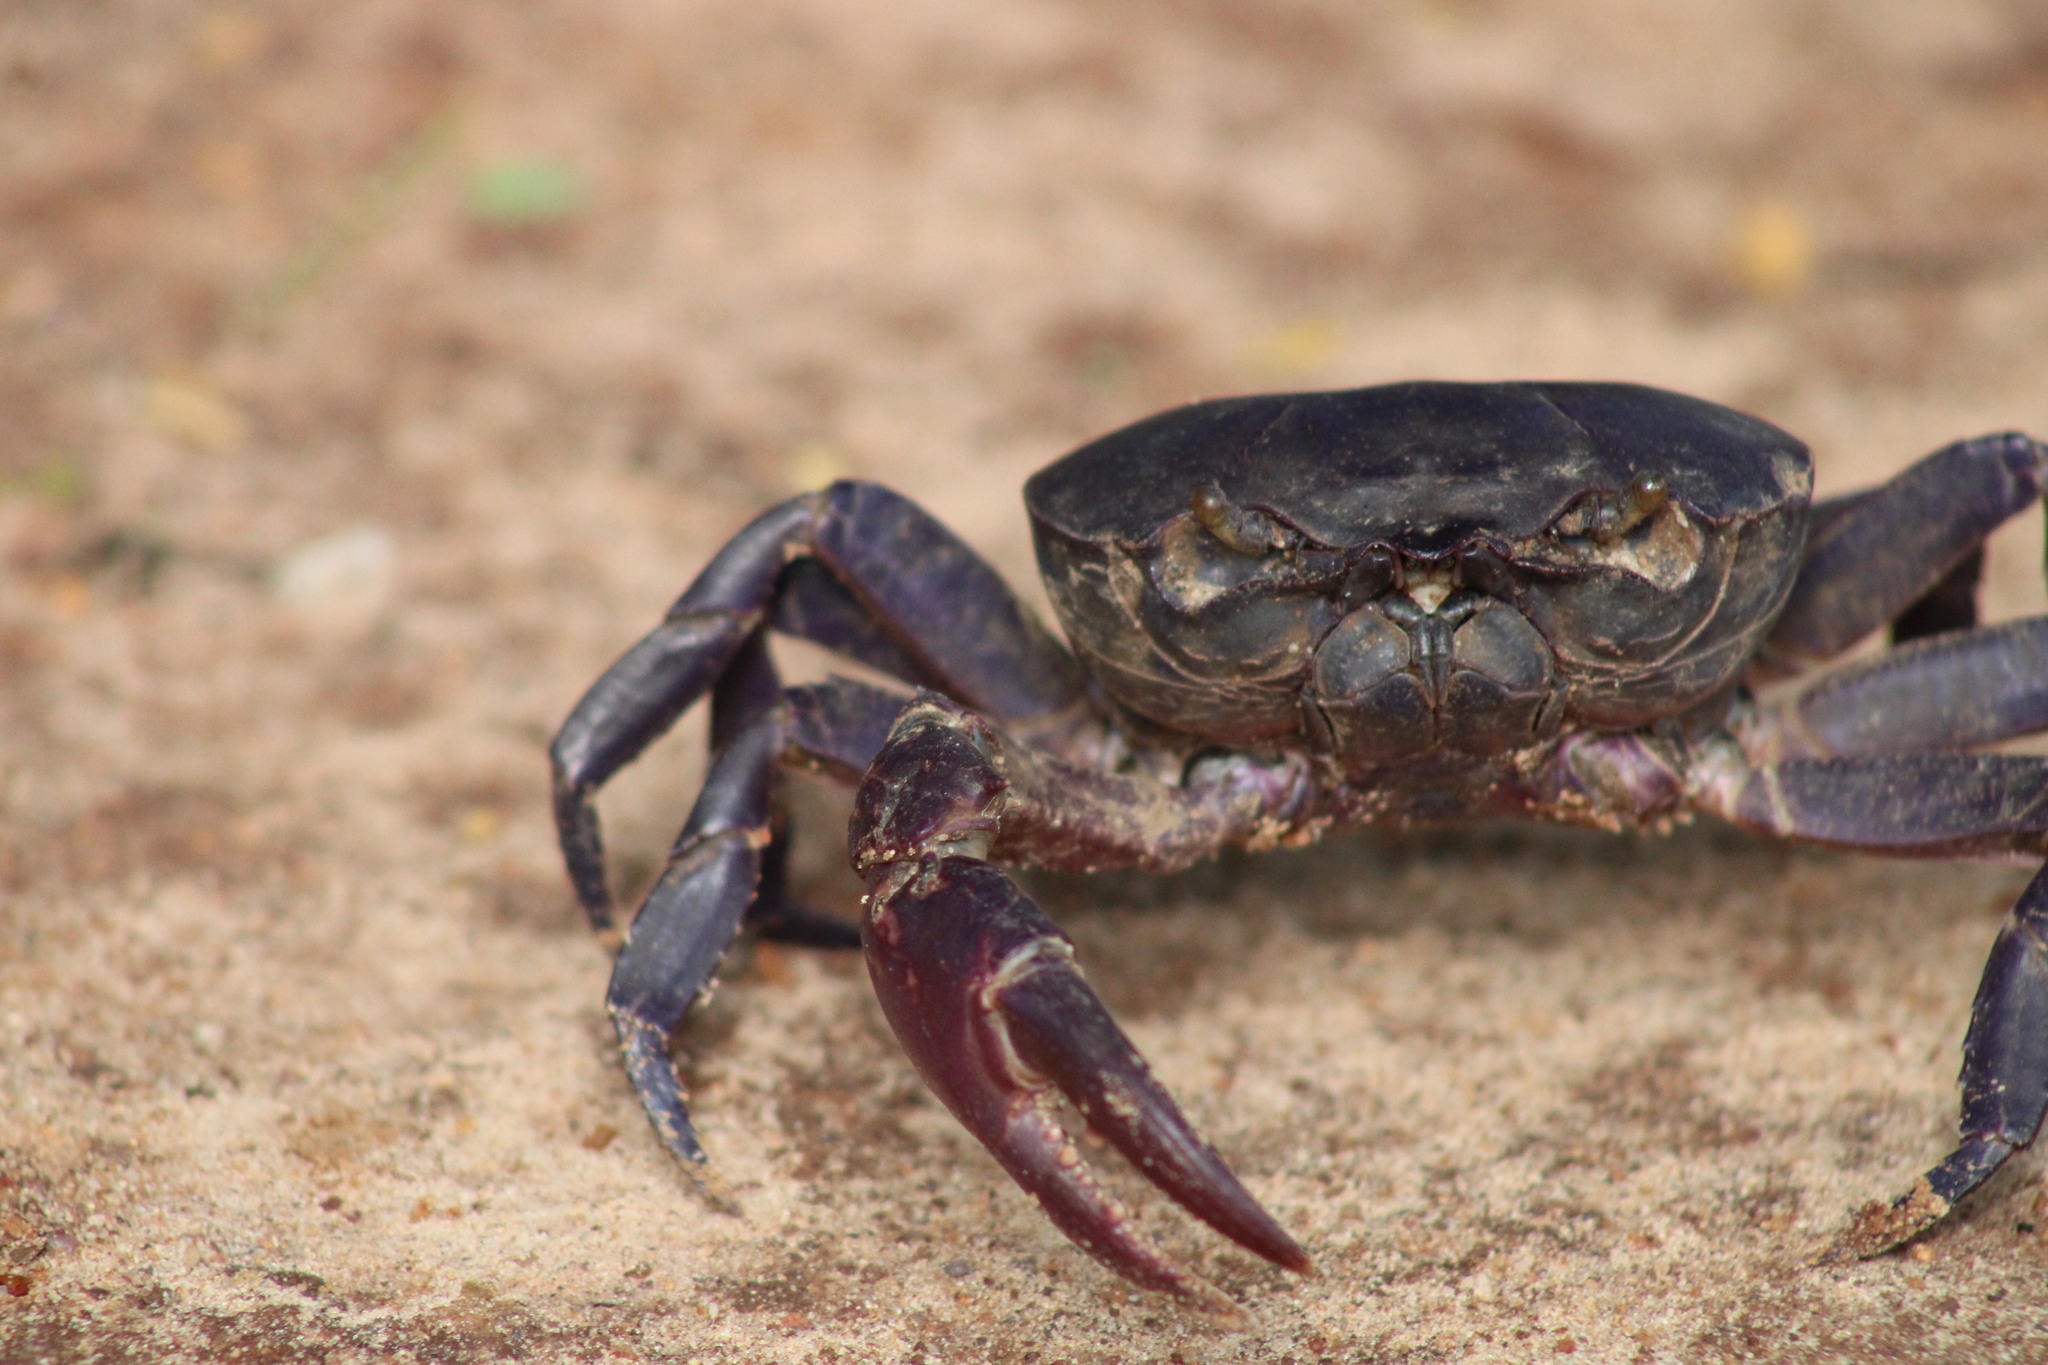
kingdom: Animalia
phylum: Arthropoda
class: Malacostraca
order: Decapoda
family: Deckeniidae
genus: Deckenia
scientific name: Deckenia mitis
